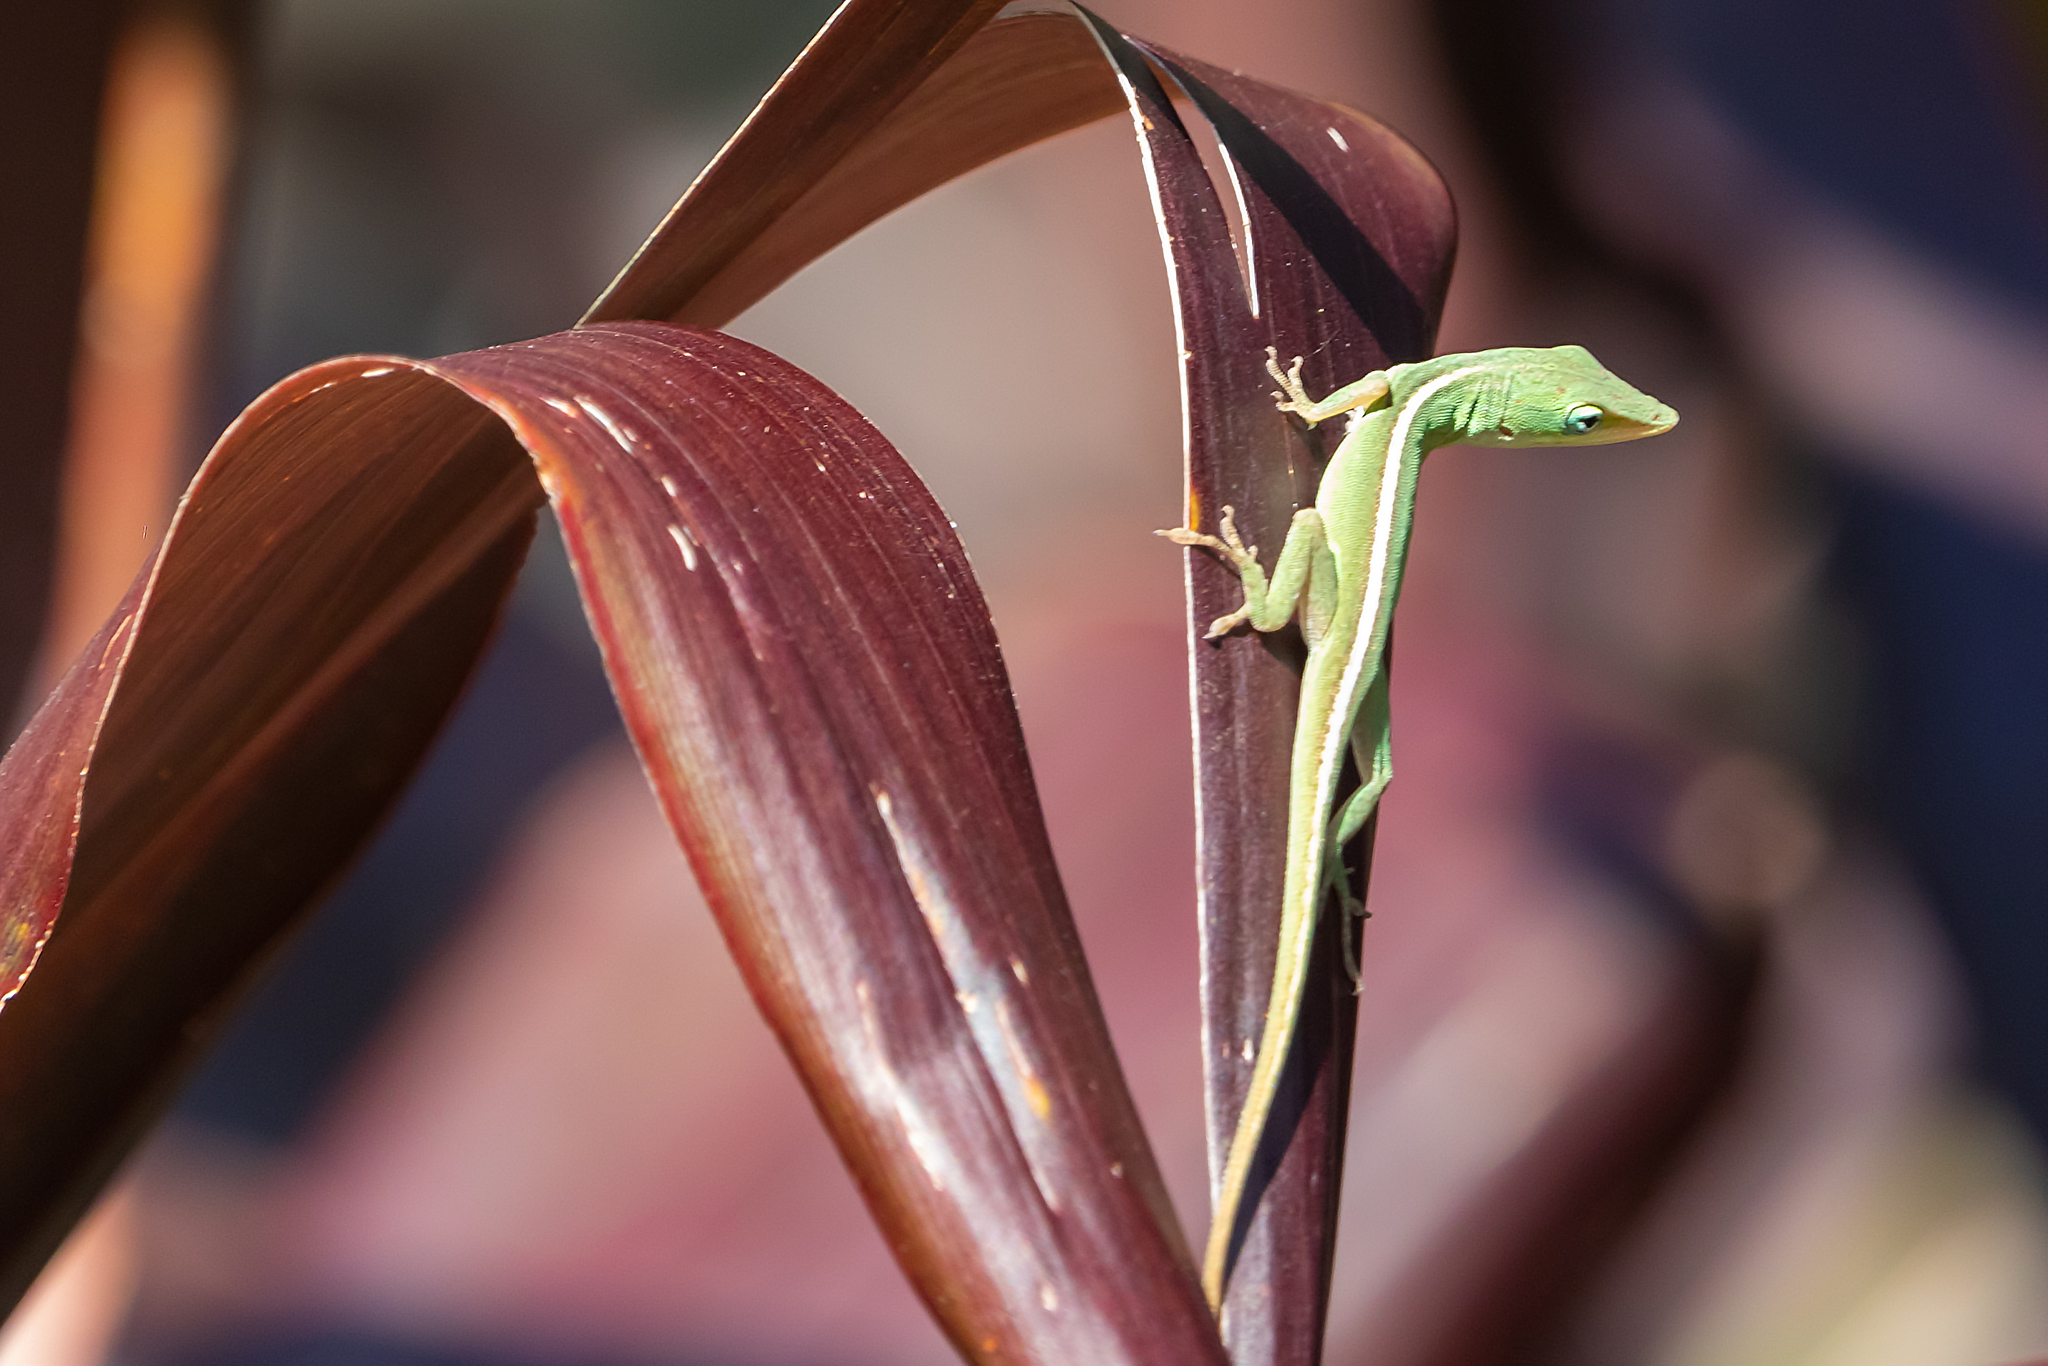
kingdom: Animalia
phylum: Chordata
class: Squamata
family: Dactyloidae
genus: Anolis
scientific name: Anolis carolinensis
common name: Green anole
